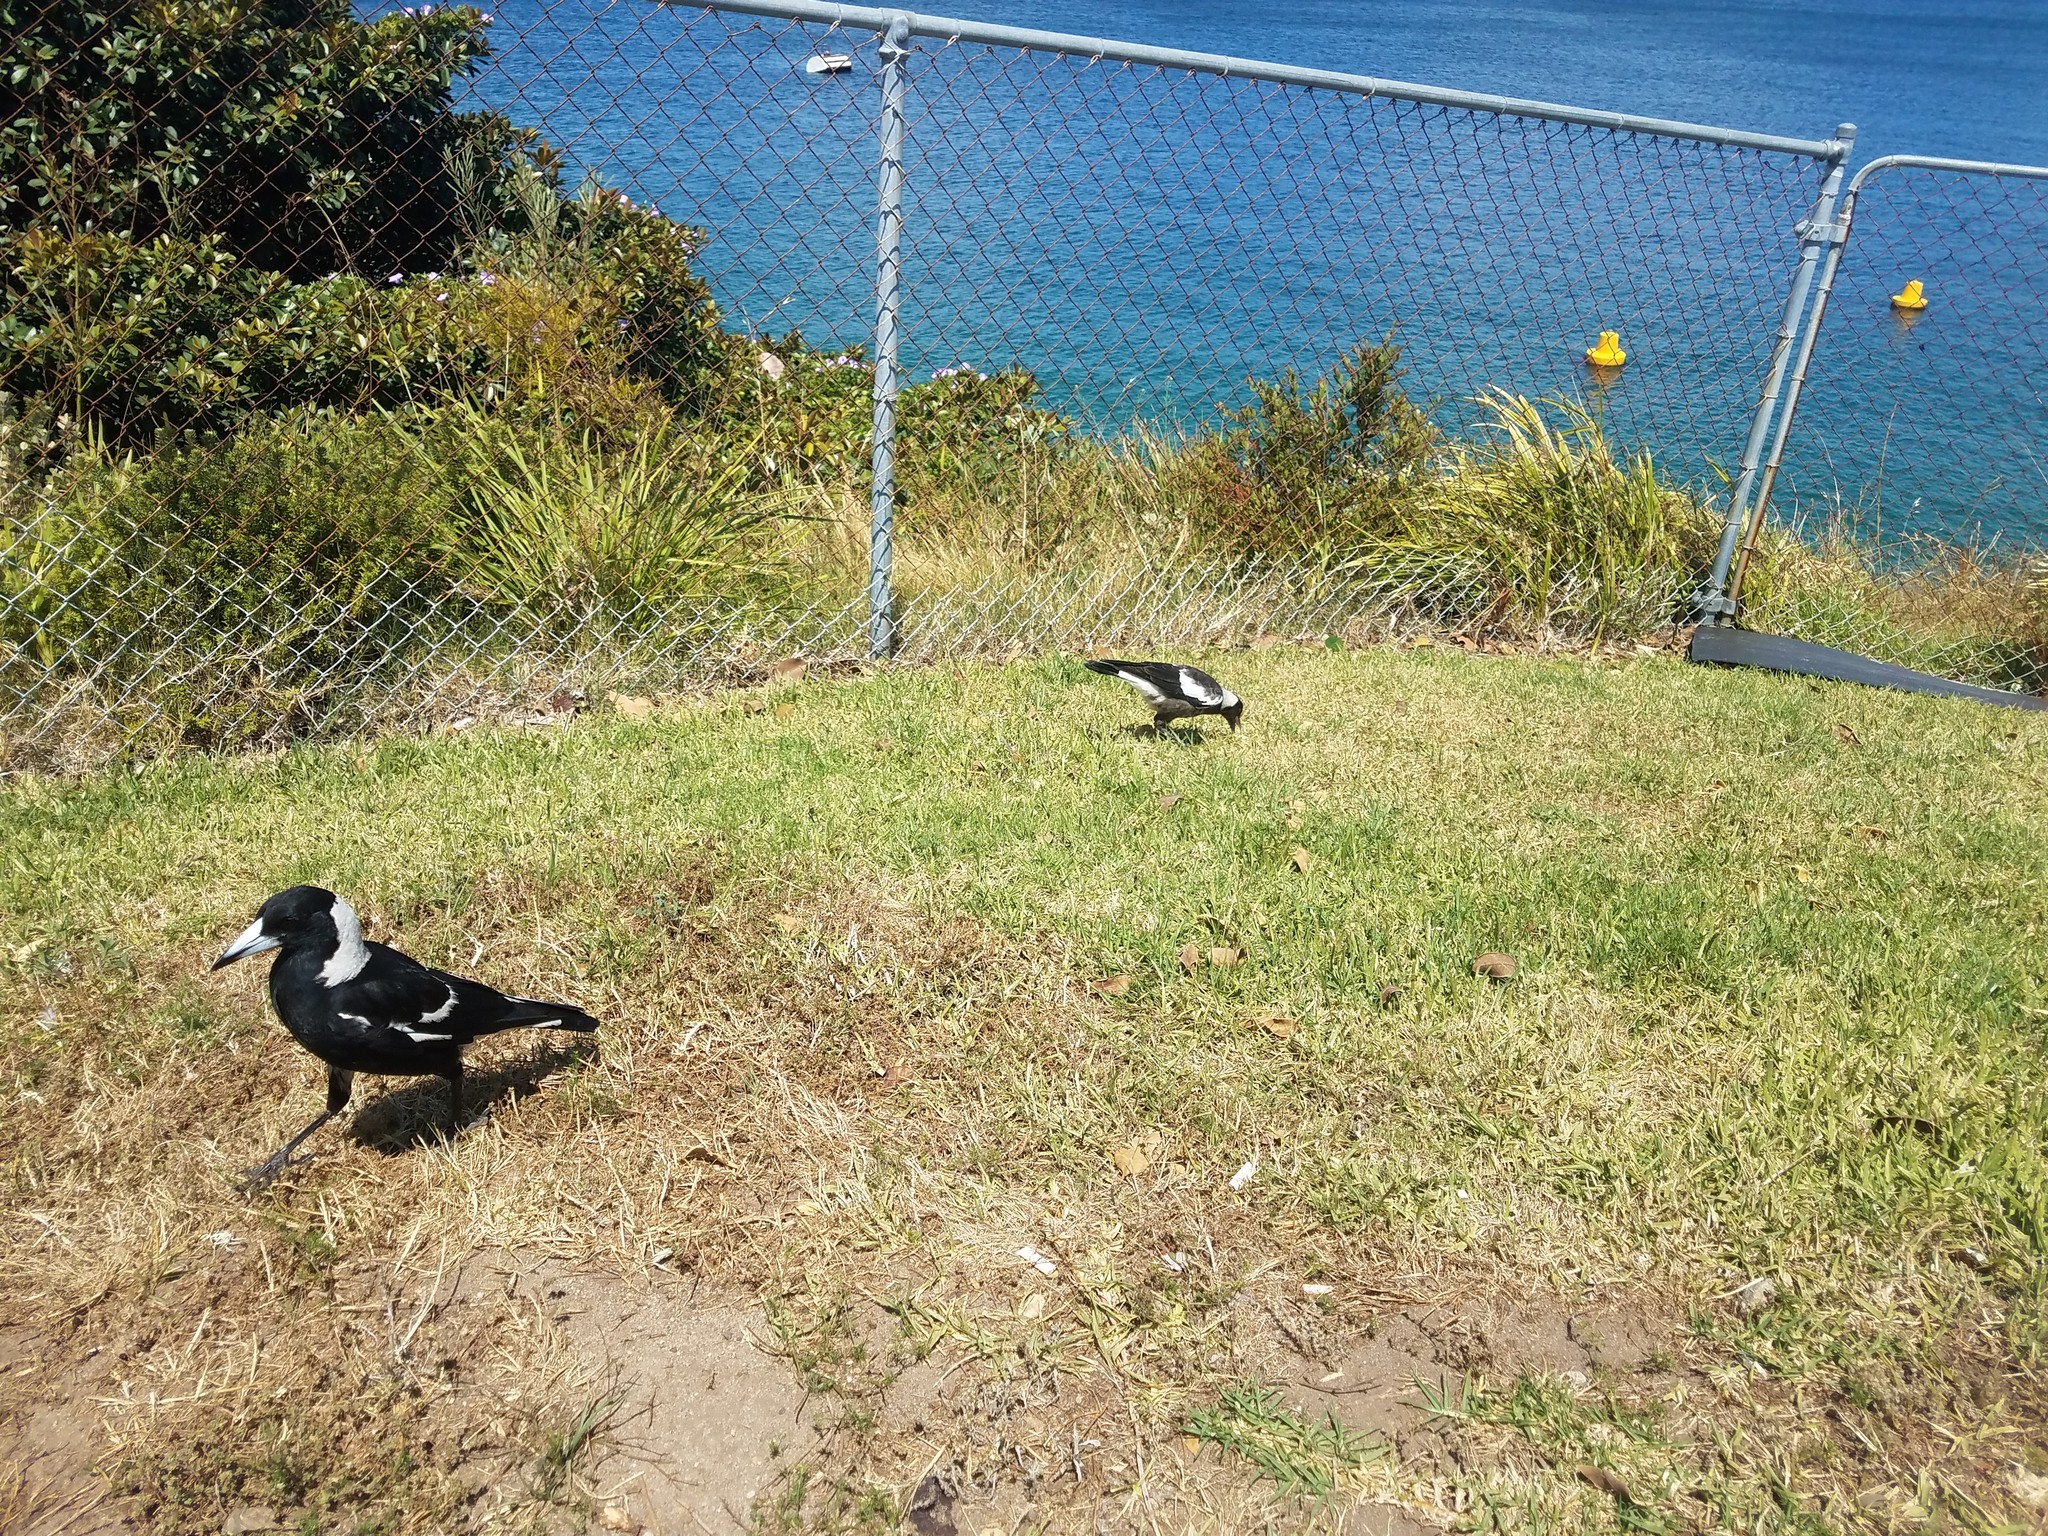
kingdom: Animalia
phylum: Chordata
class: Aves
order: Passeriformes
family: Cracticidae
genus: Gymnorhina
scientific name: Gymnorhina tibicen
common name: Australian magpie
